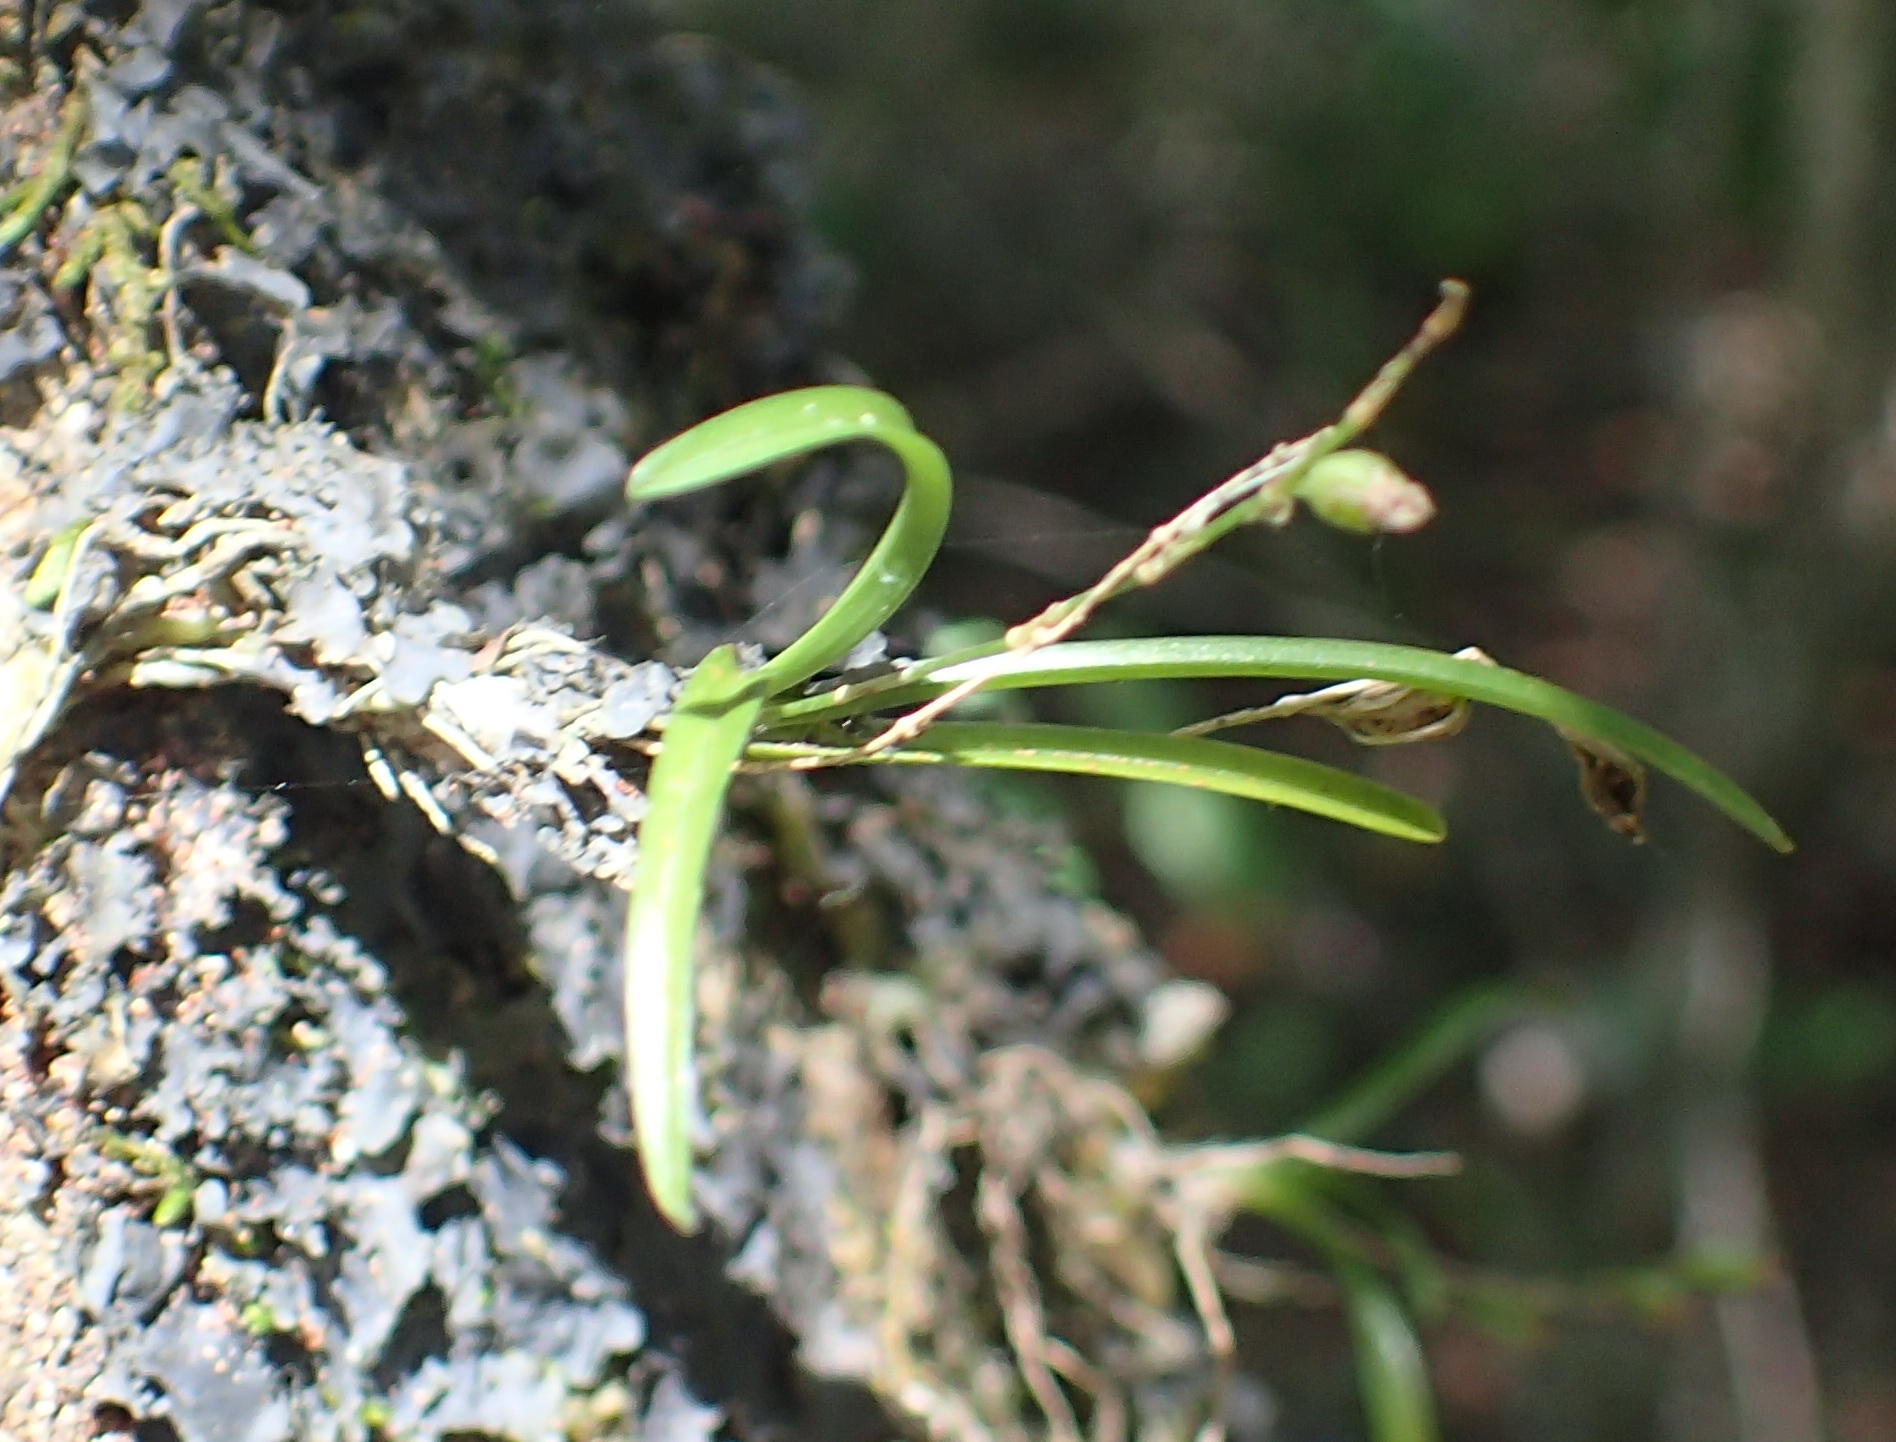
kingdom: Plantae
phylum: Tracheophyta
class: Liliopsida
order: Asparagales
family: Orchidaceae
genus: Angraecum
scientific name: Angraecum pusillum
